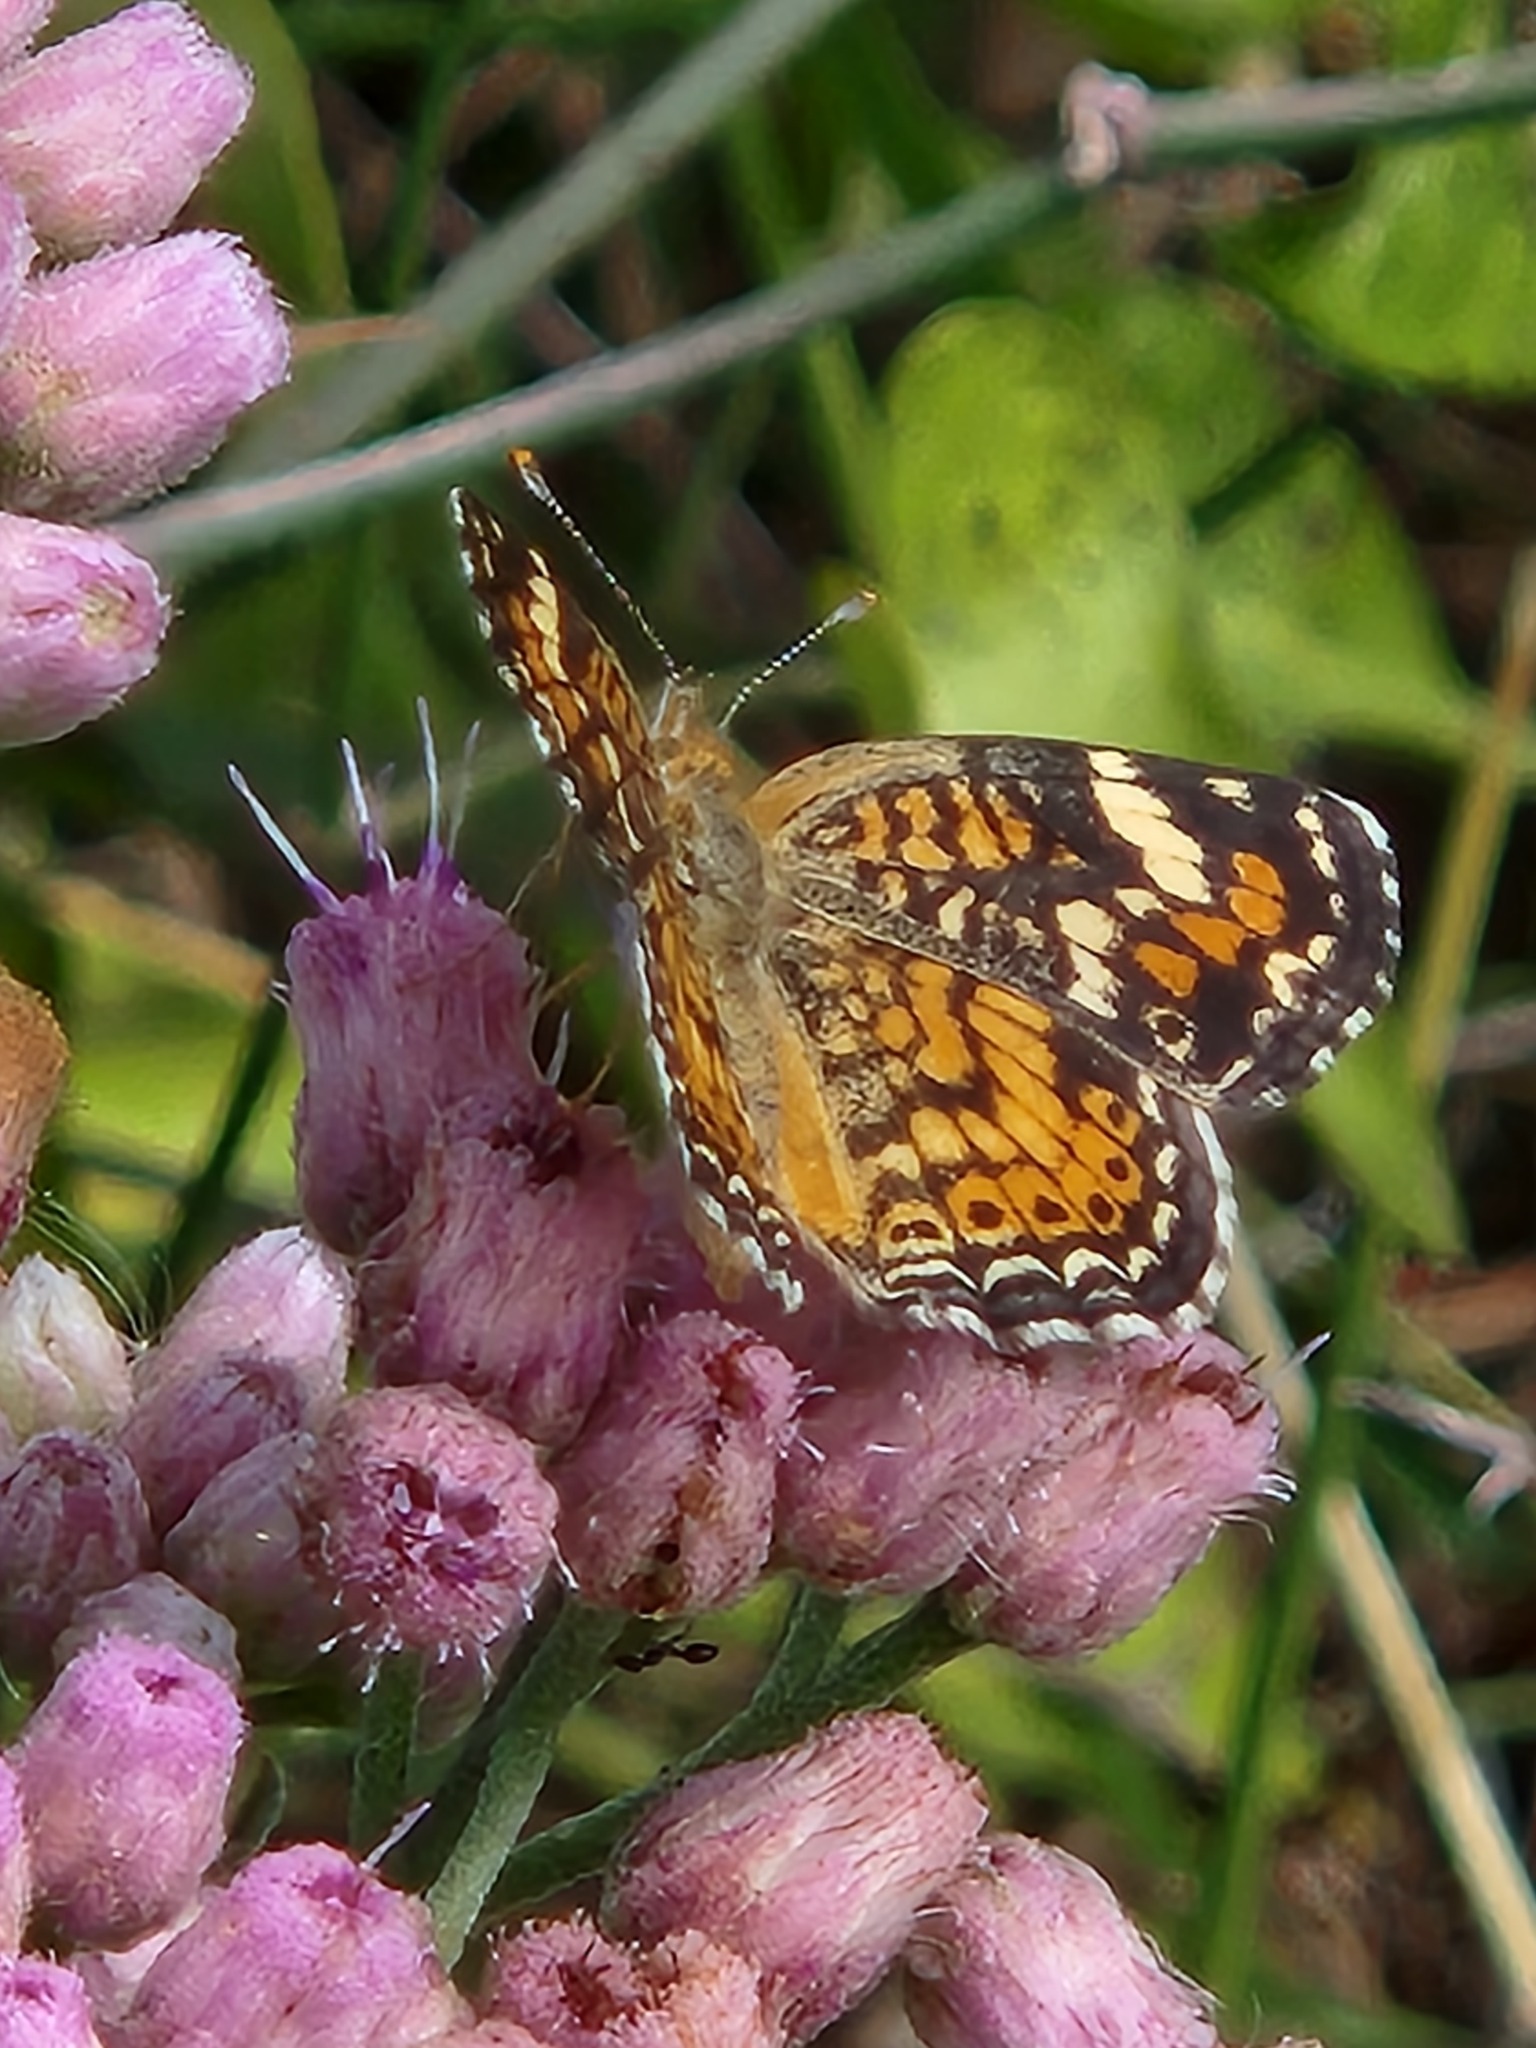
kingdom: Animalia
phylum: Arthropoda
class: Insecta
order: Lepidoptera
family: Nymphalidae
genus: Phyciodes
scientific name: Phyciodes phaon
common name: Phaon crescent
